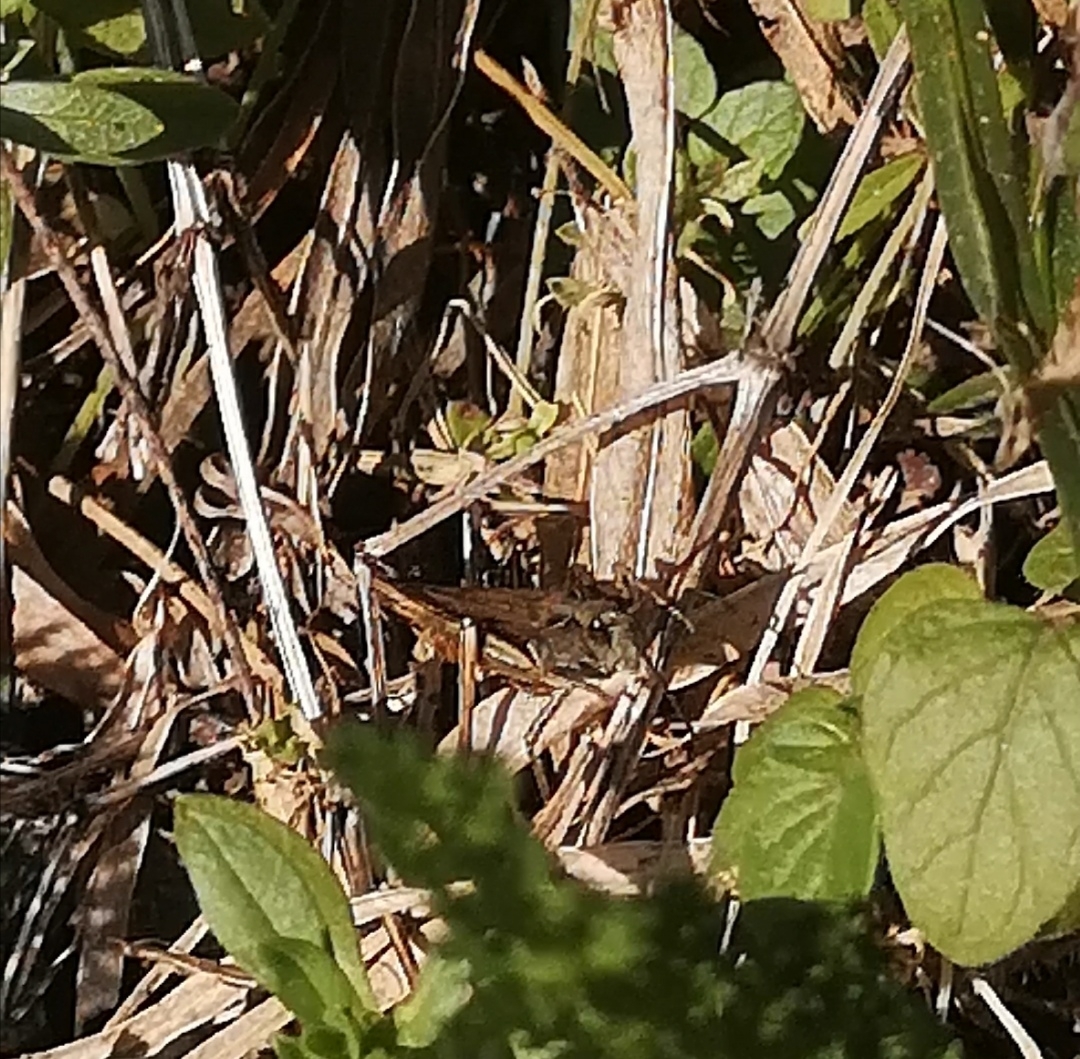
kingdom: Animalia
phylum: Arthropoda
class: Insecta
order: Orthoptera
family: Acrididae
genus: Chorthippus
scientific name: Chorthippus brunneus
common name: Field grasshopper
